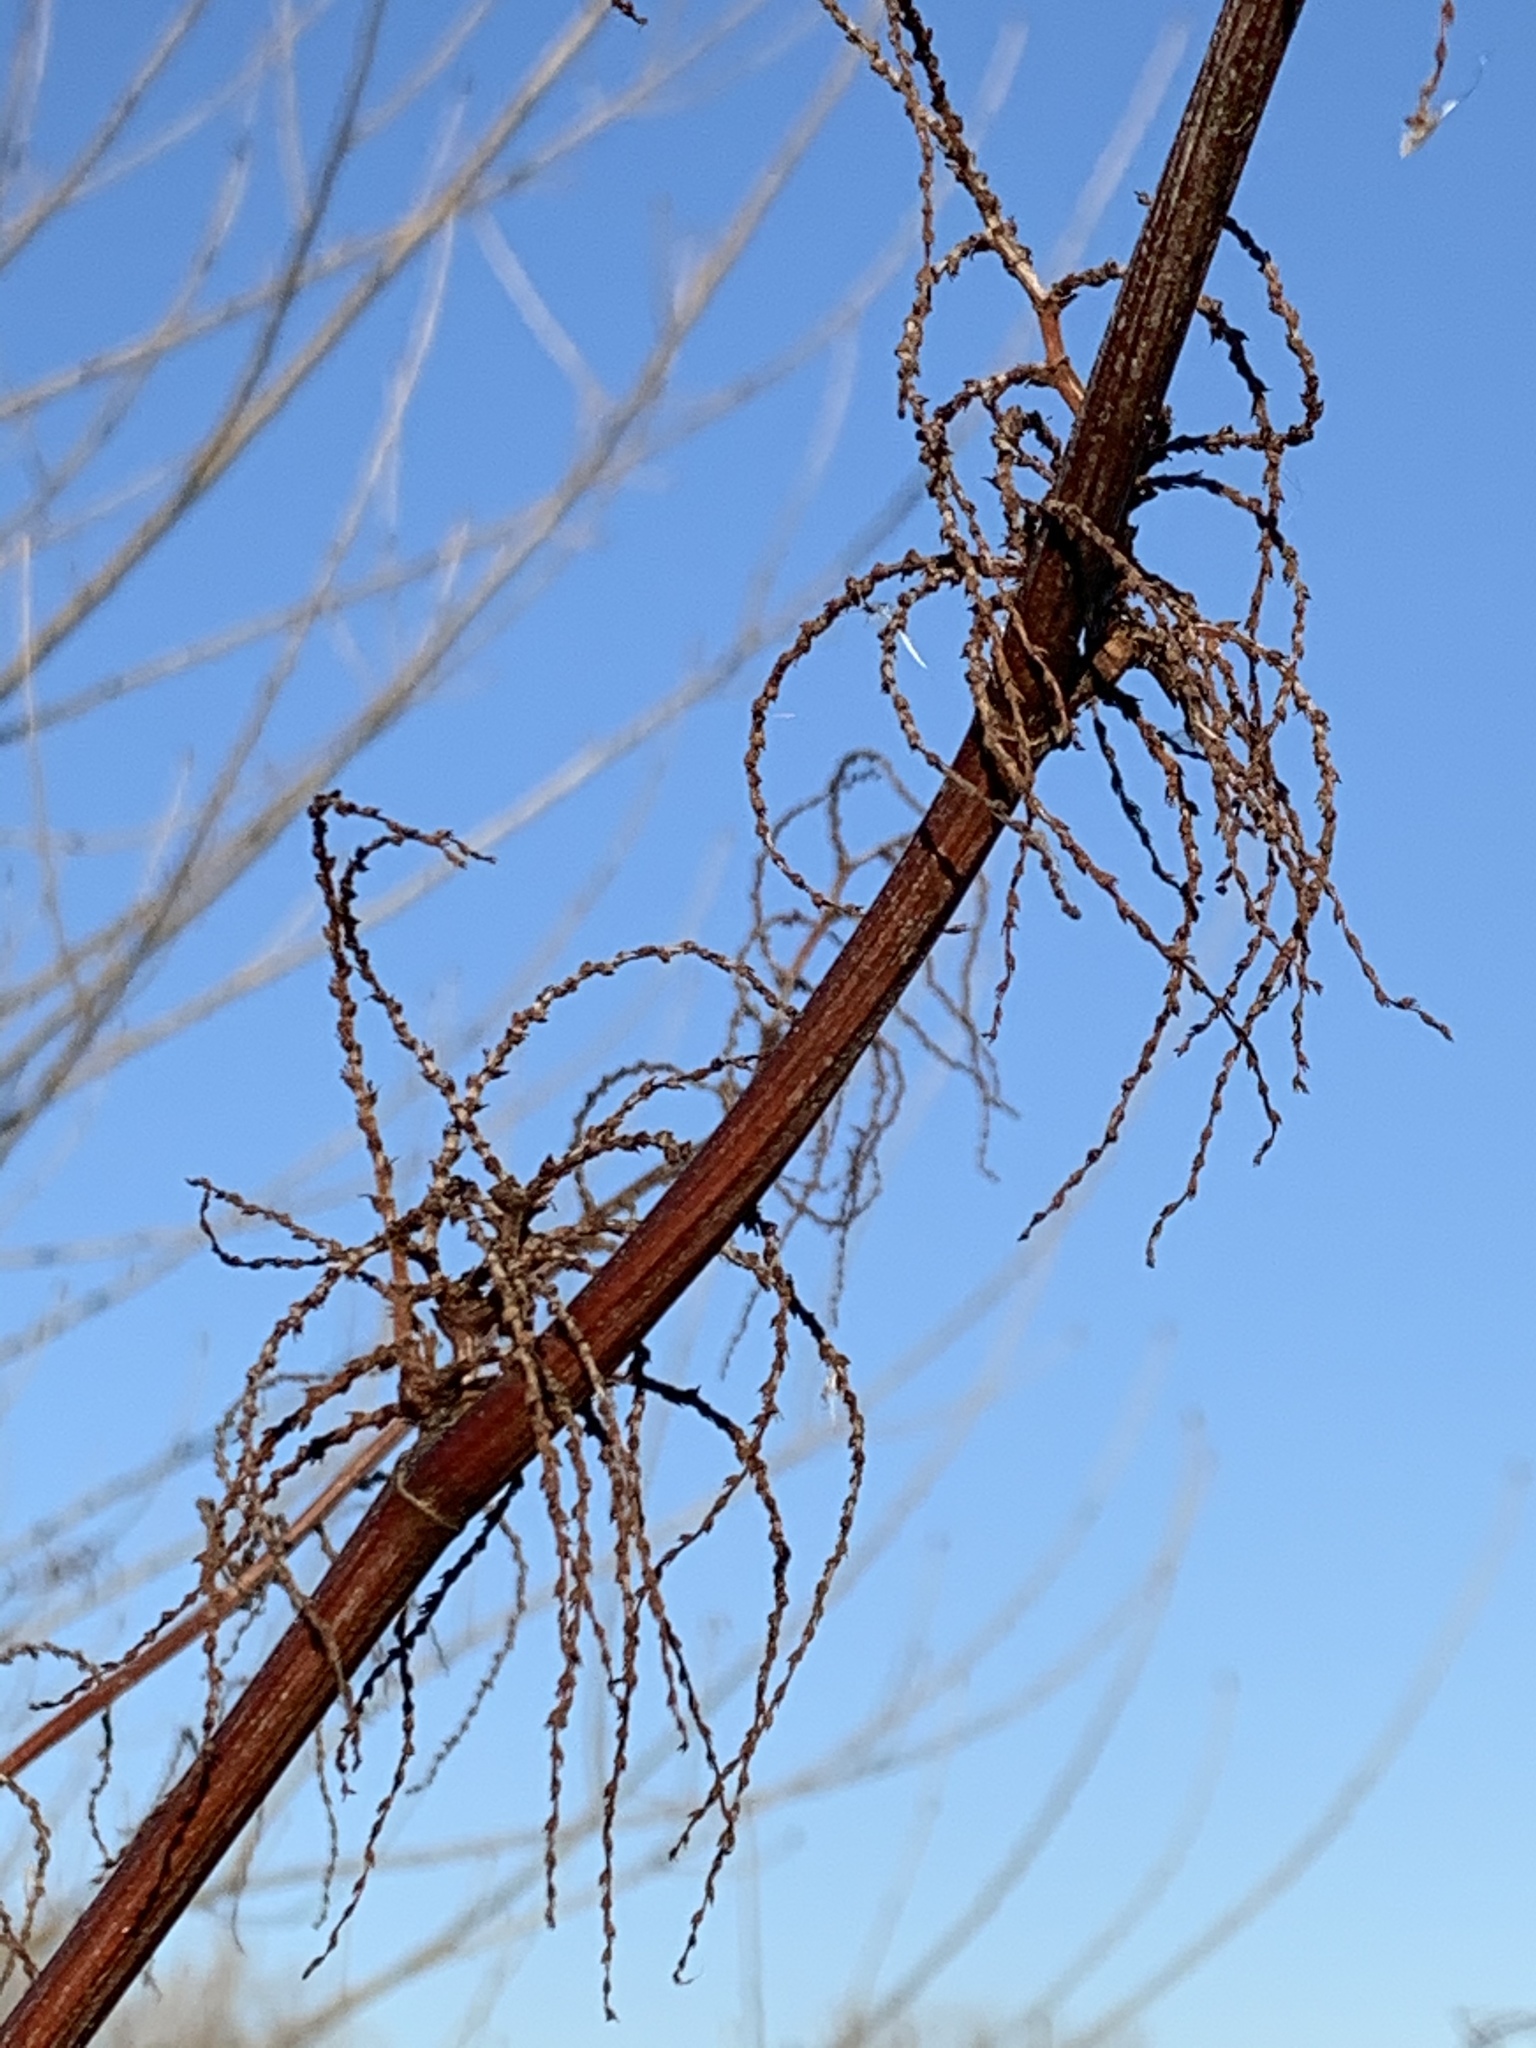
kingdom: Plantae
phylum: Tracheophyta
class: Magnoliopsida
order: Caryophyllales
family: Polygonaceae
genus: Reynoutria
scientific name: Reynoutria japonica
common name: Japanese knotweed
